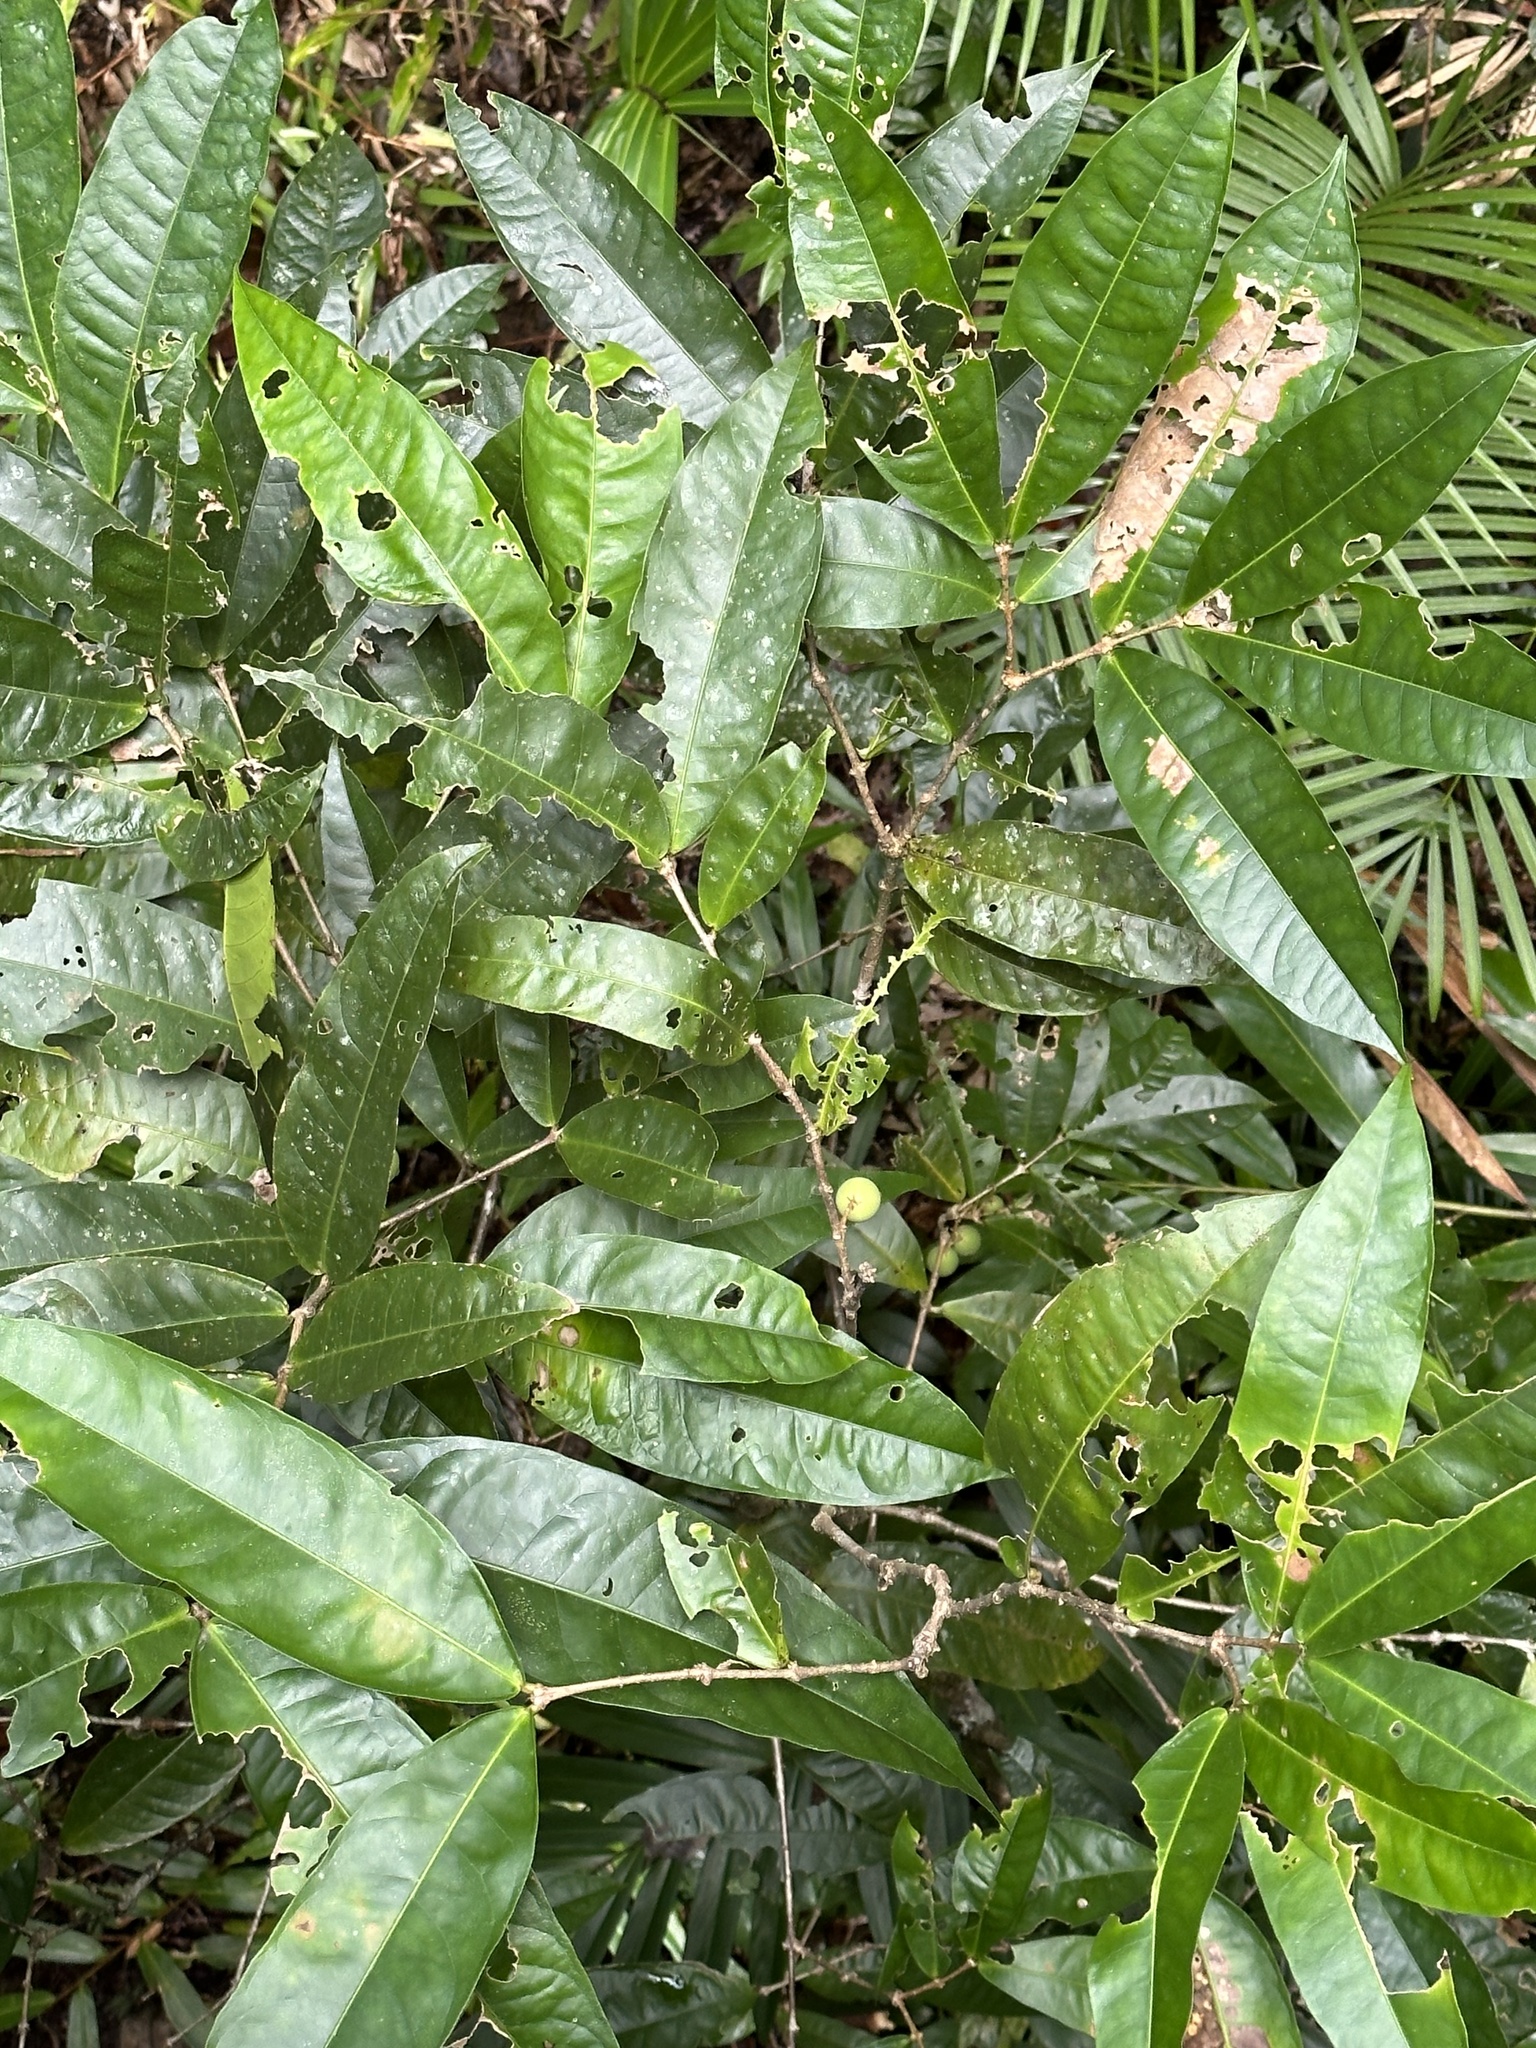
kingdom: Plantae
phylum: Tracheophyta
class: Magnoliopsida
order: Lamiales
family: Oleaceae
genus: Chionanthus
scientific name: Chionanthus sleumeri
